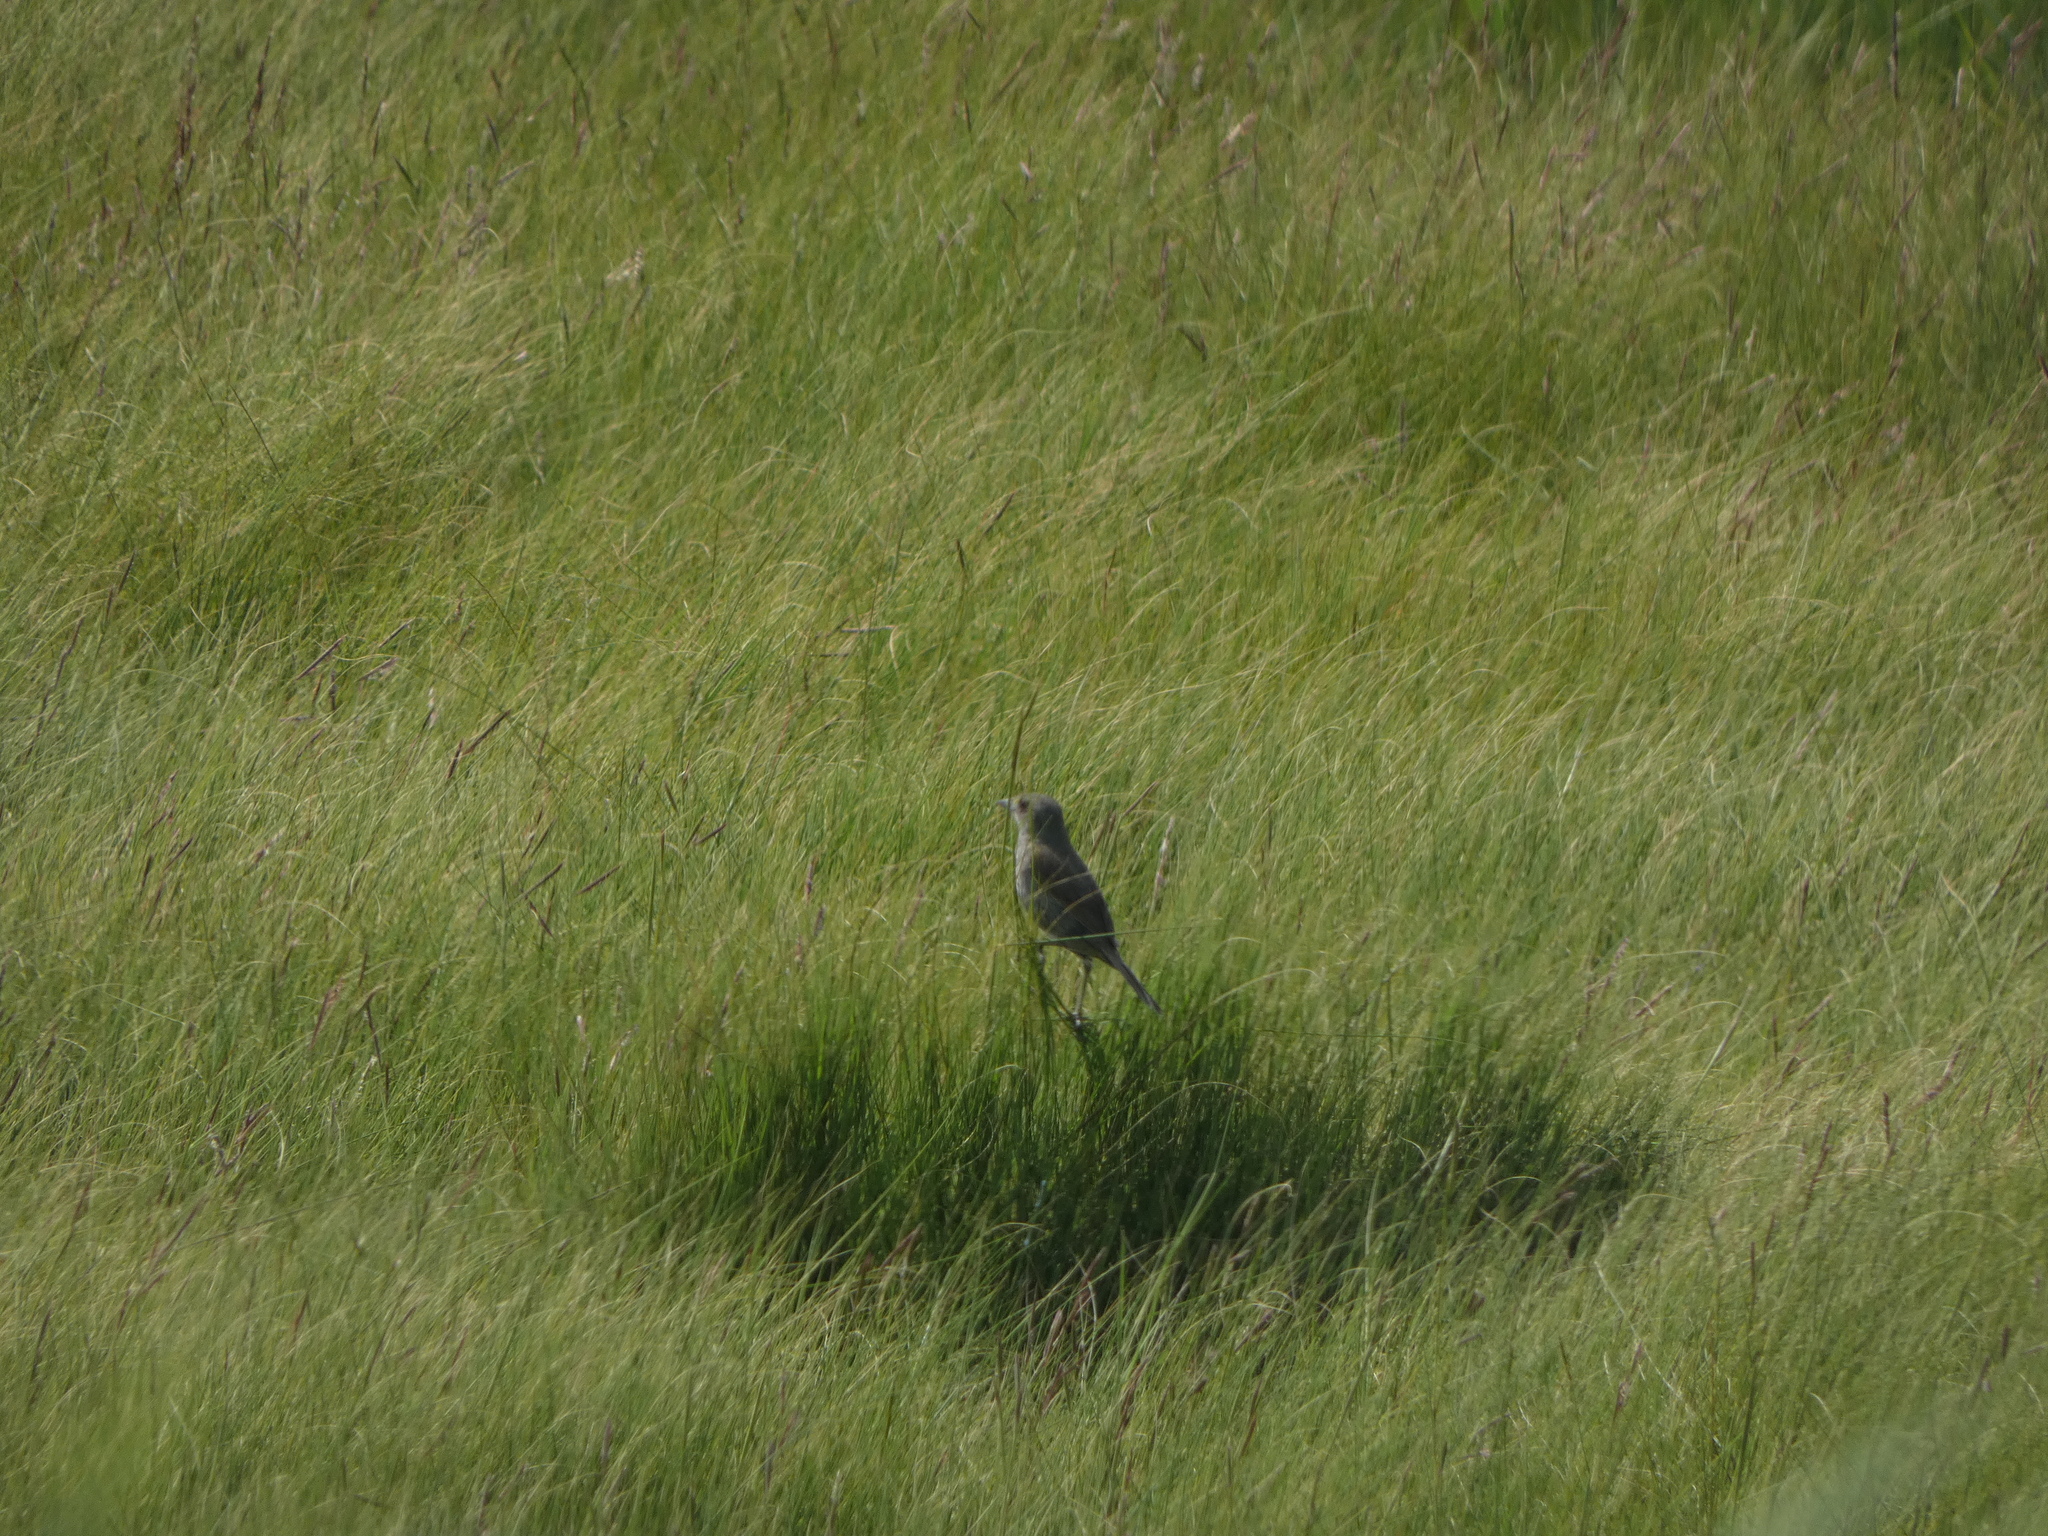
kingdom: Animalia
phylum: Chordata
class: Aves
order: Passeriformes
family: Passerellidae
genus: Ammospiza
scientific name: Ammospiza maritima
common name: Seaside sparrow
